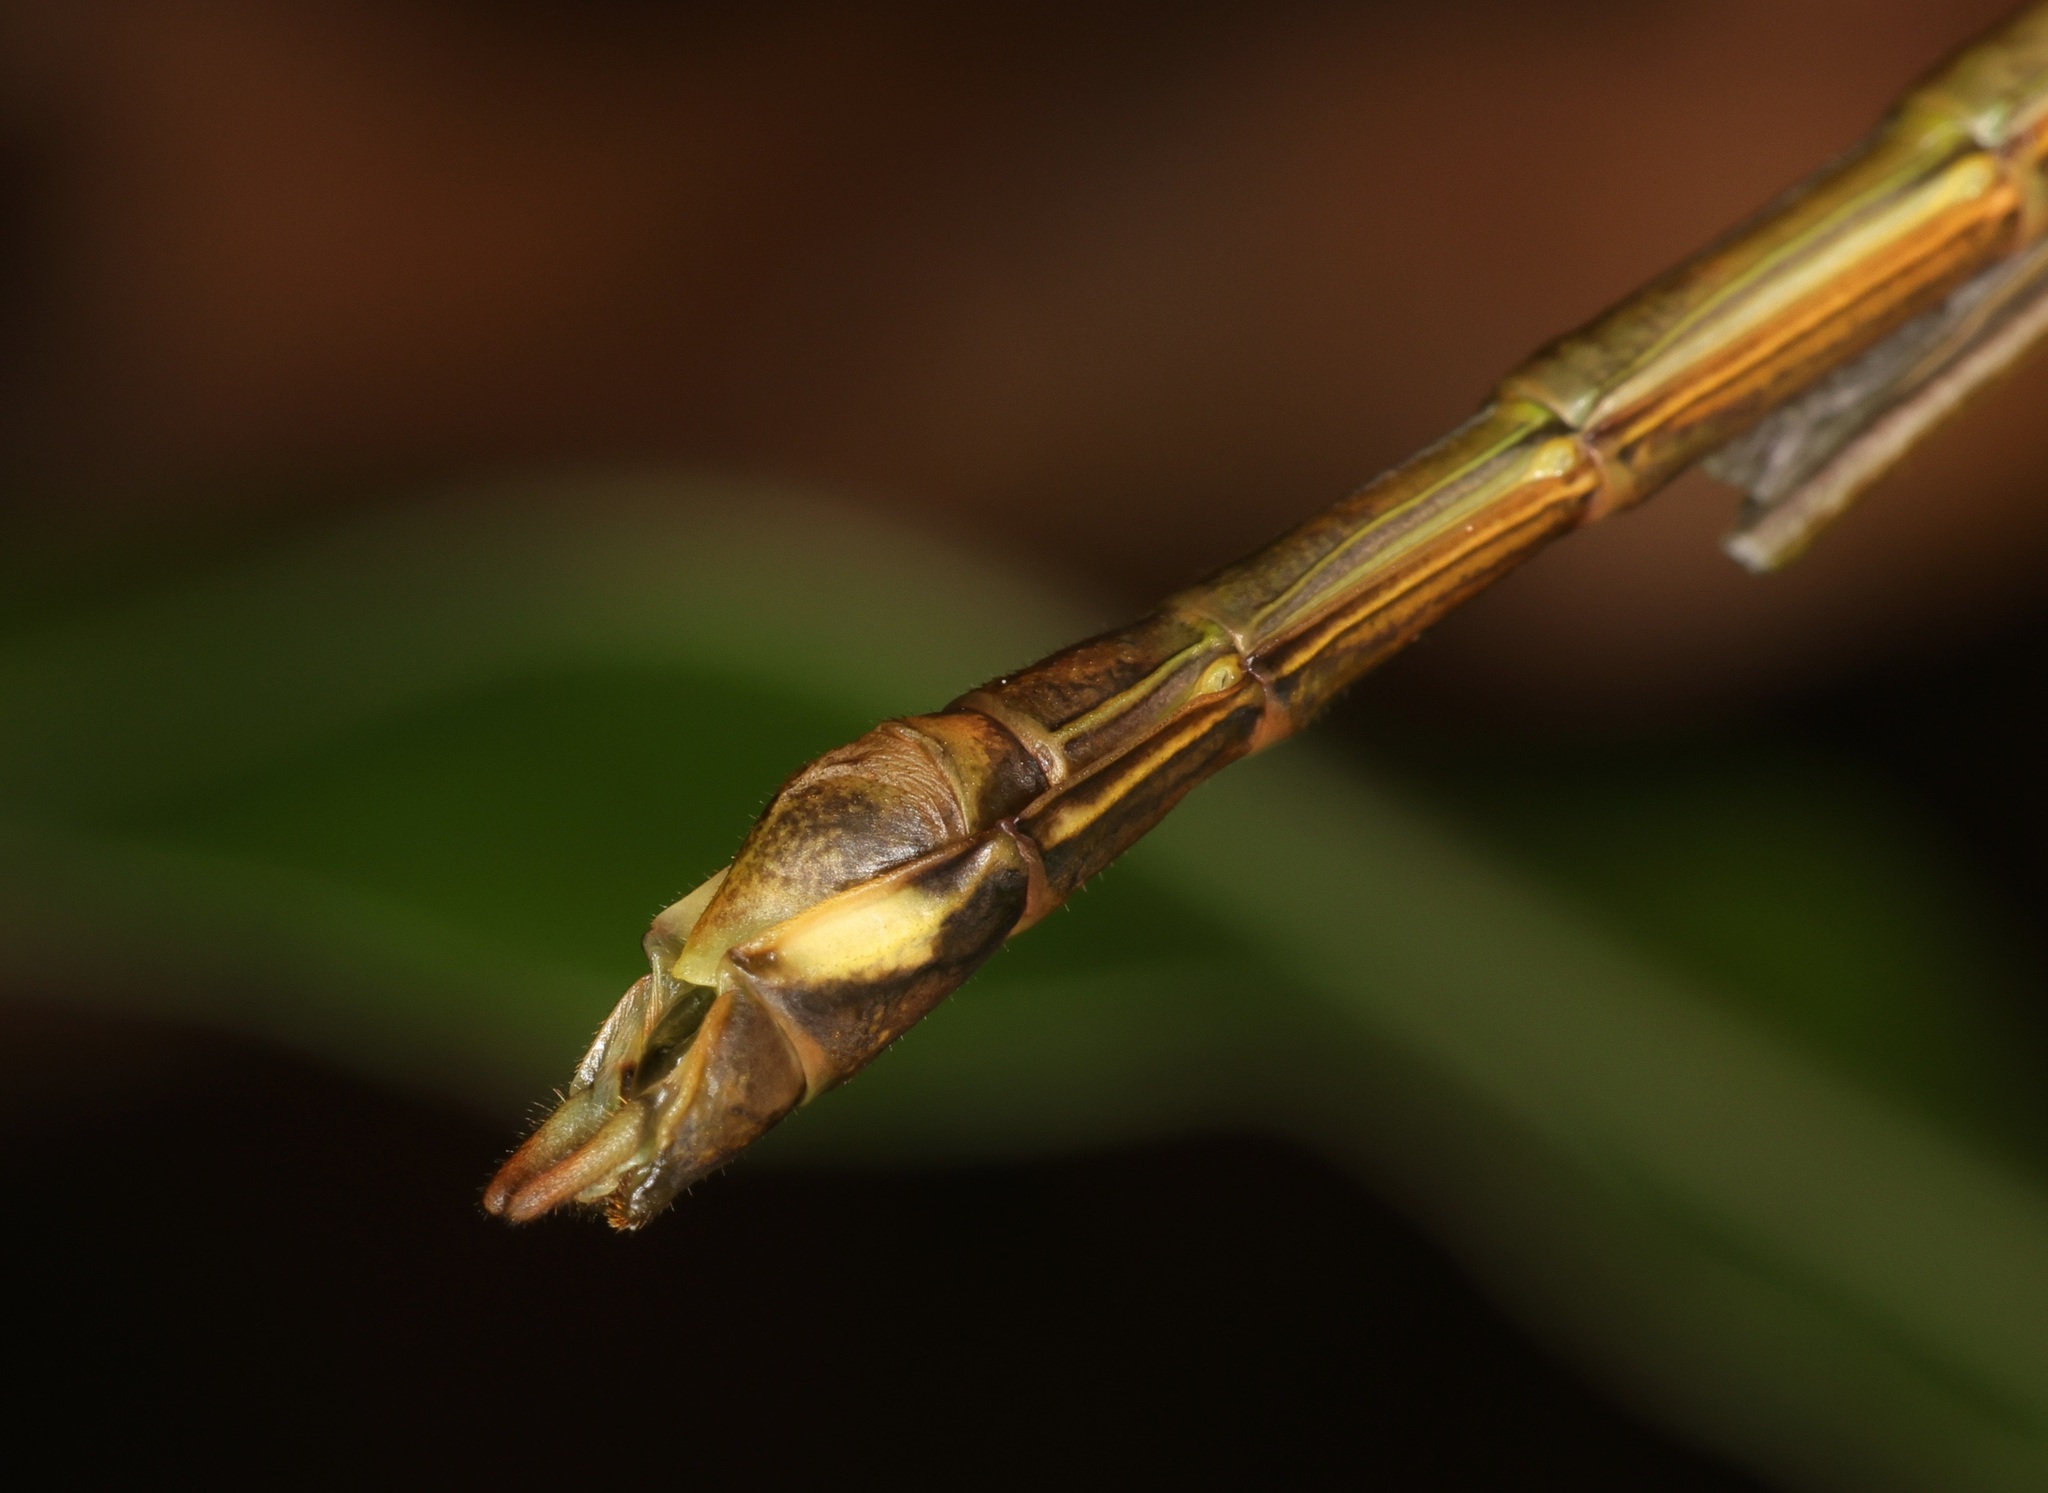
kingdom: Animalia
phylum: Arthropoda
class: Insecta
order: Phasmida
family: Lonchodidae
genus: Huananphasma
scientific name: Huananphasma amicum
